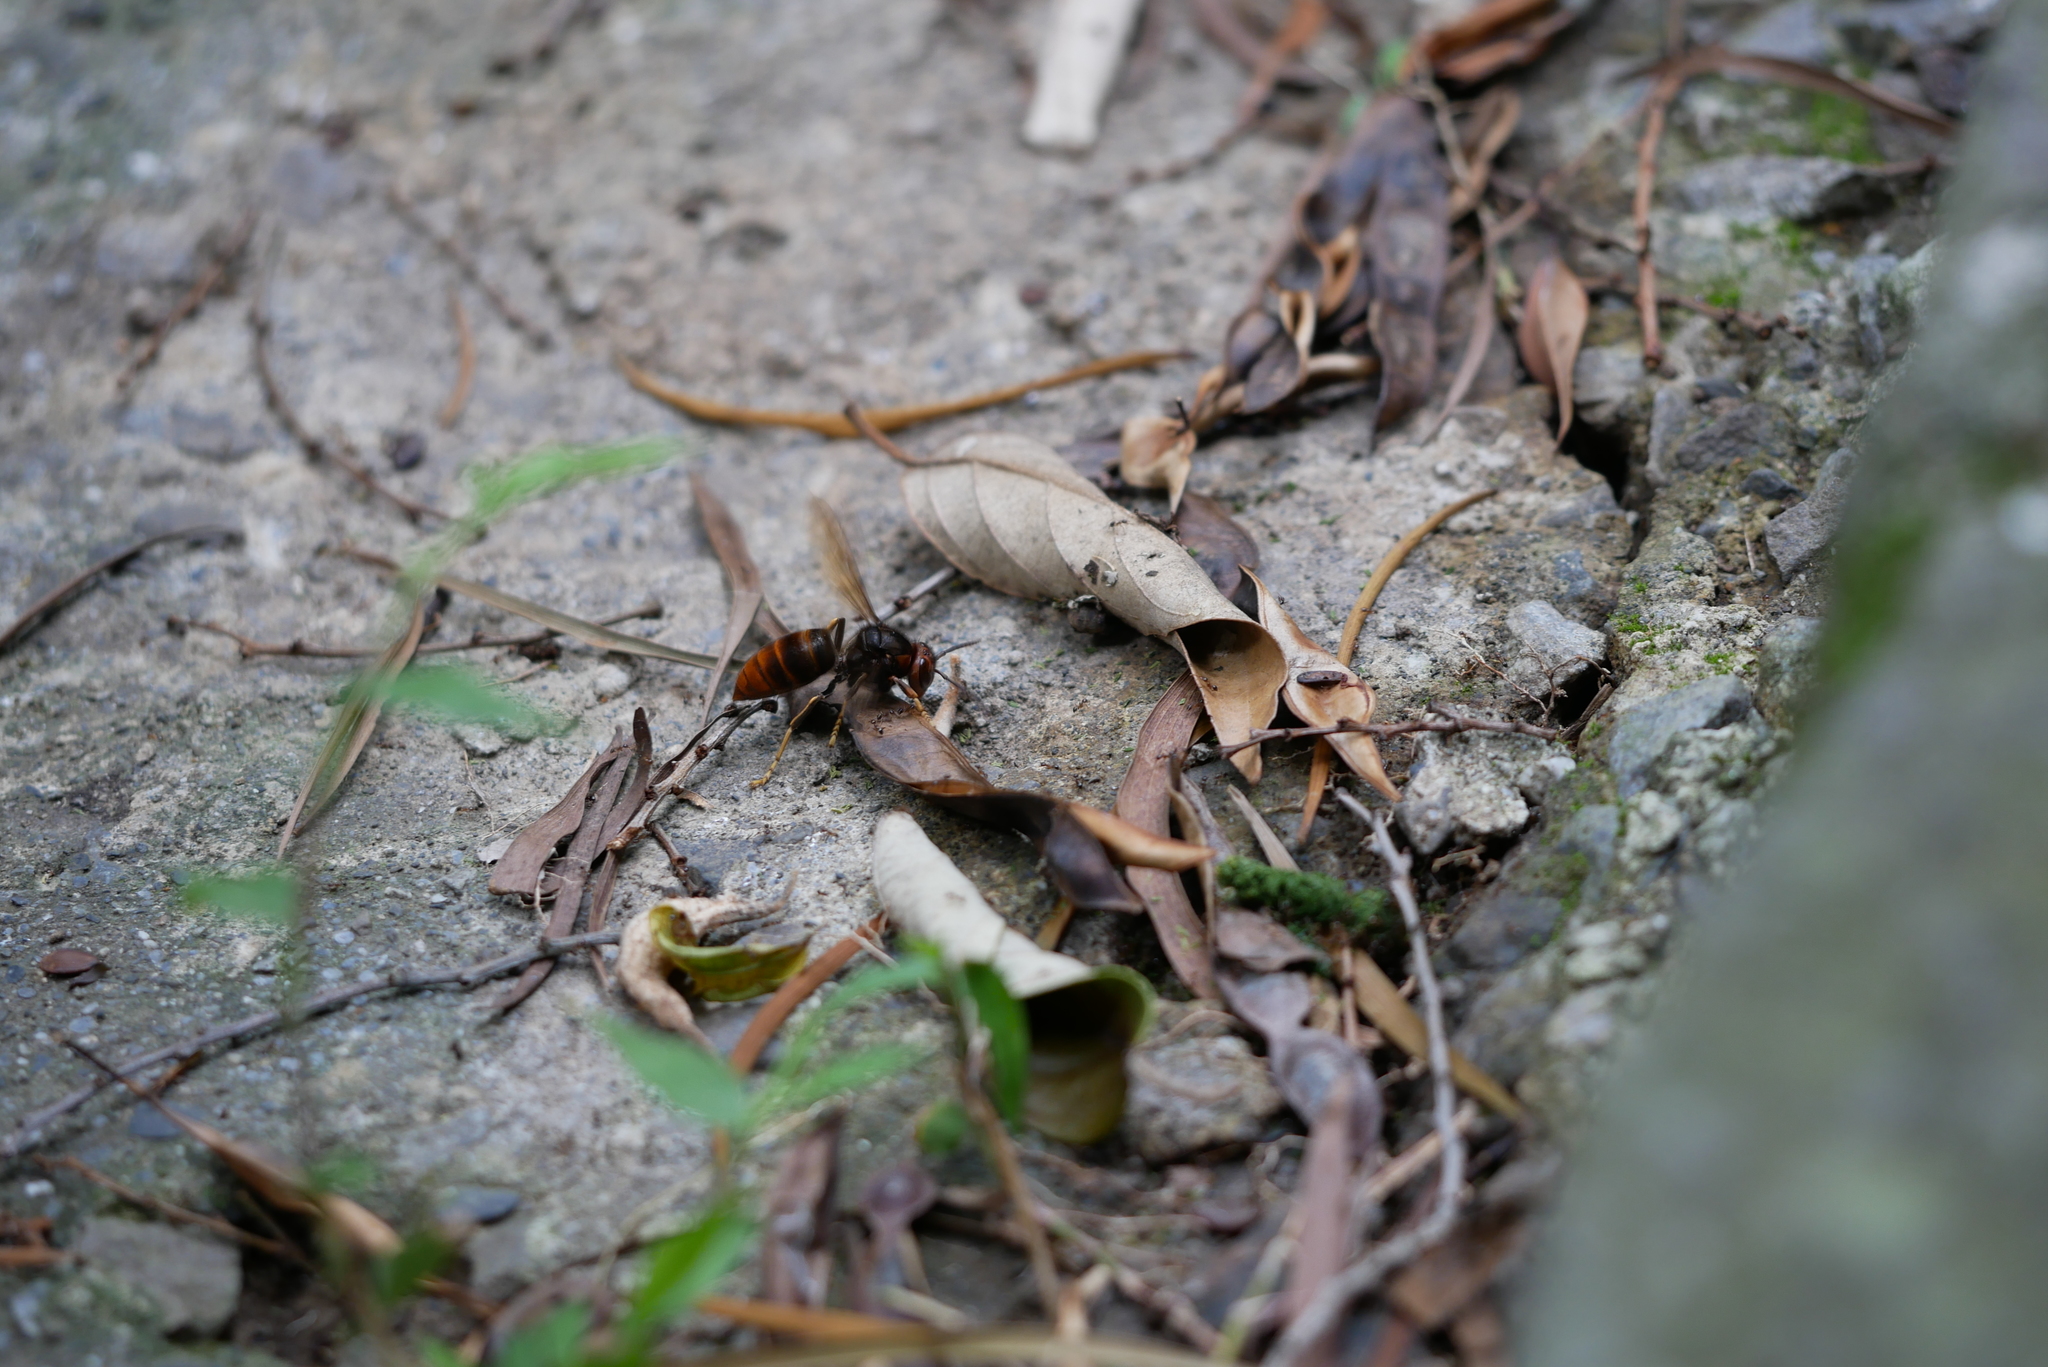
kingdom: Animalia
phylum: Arthropoda
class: Insecta
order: Hymenoptera
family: Vespidae
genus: Vespa
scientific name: Vespa velutina
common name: Asian hornet
